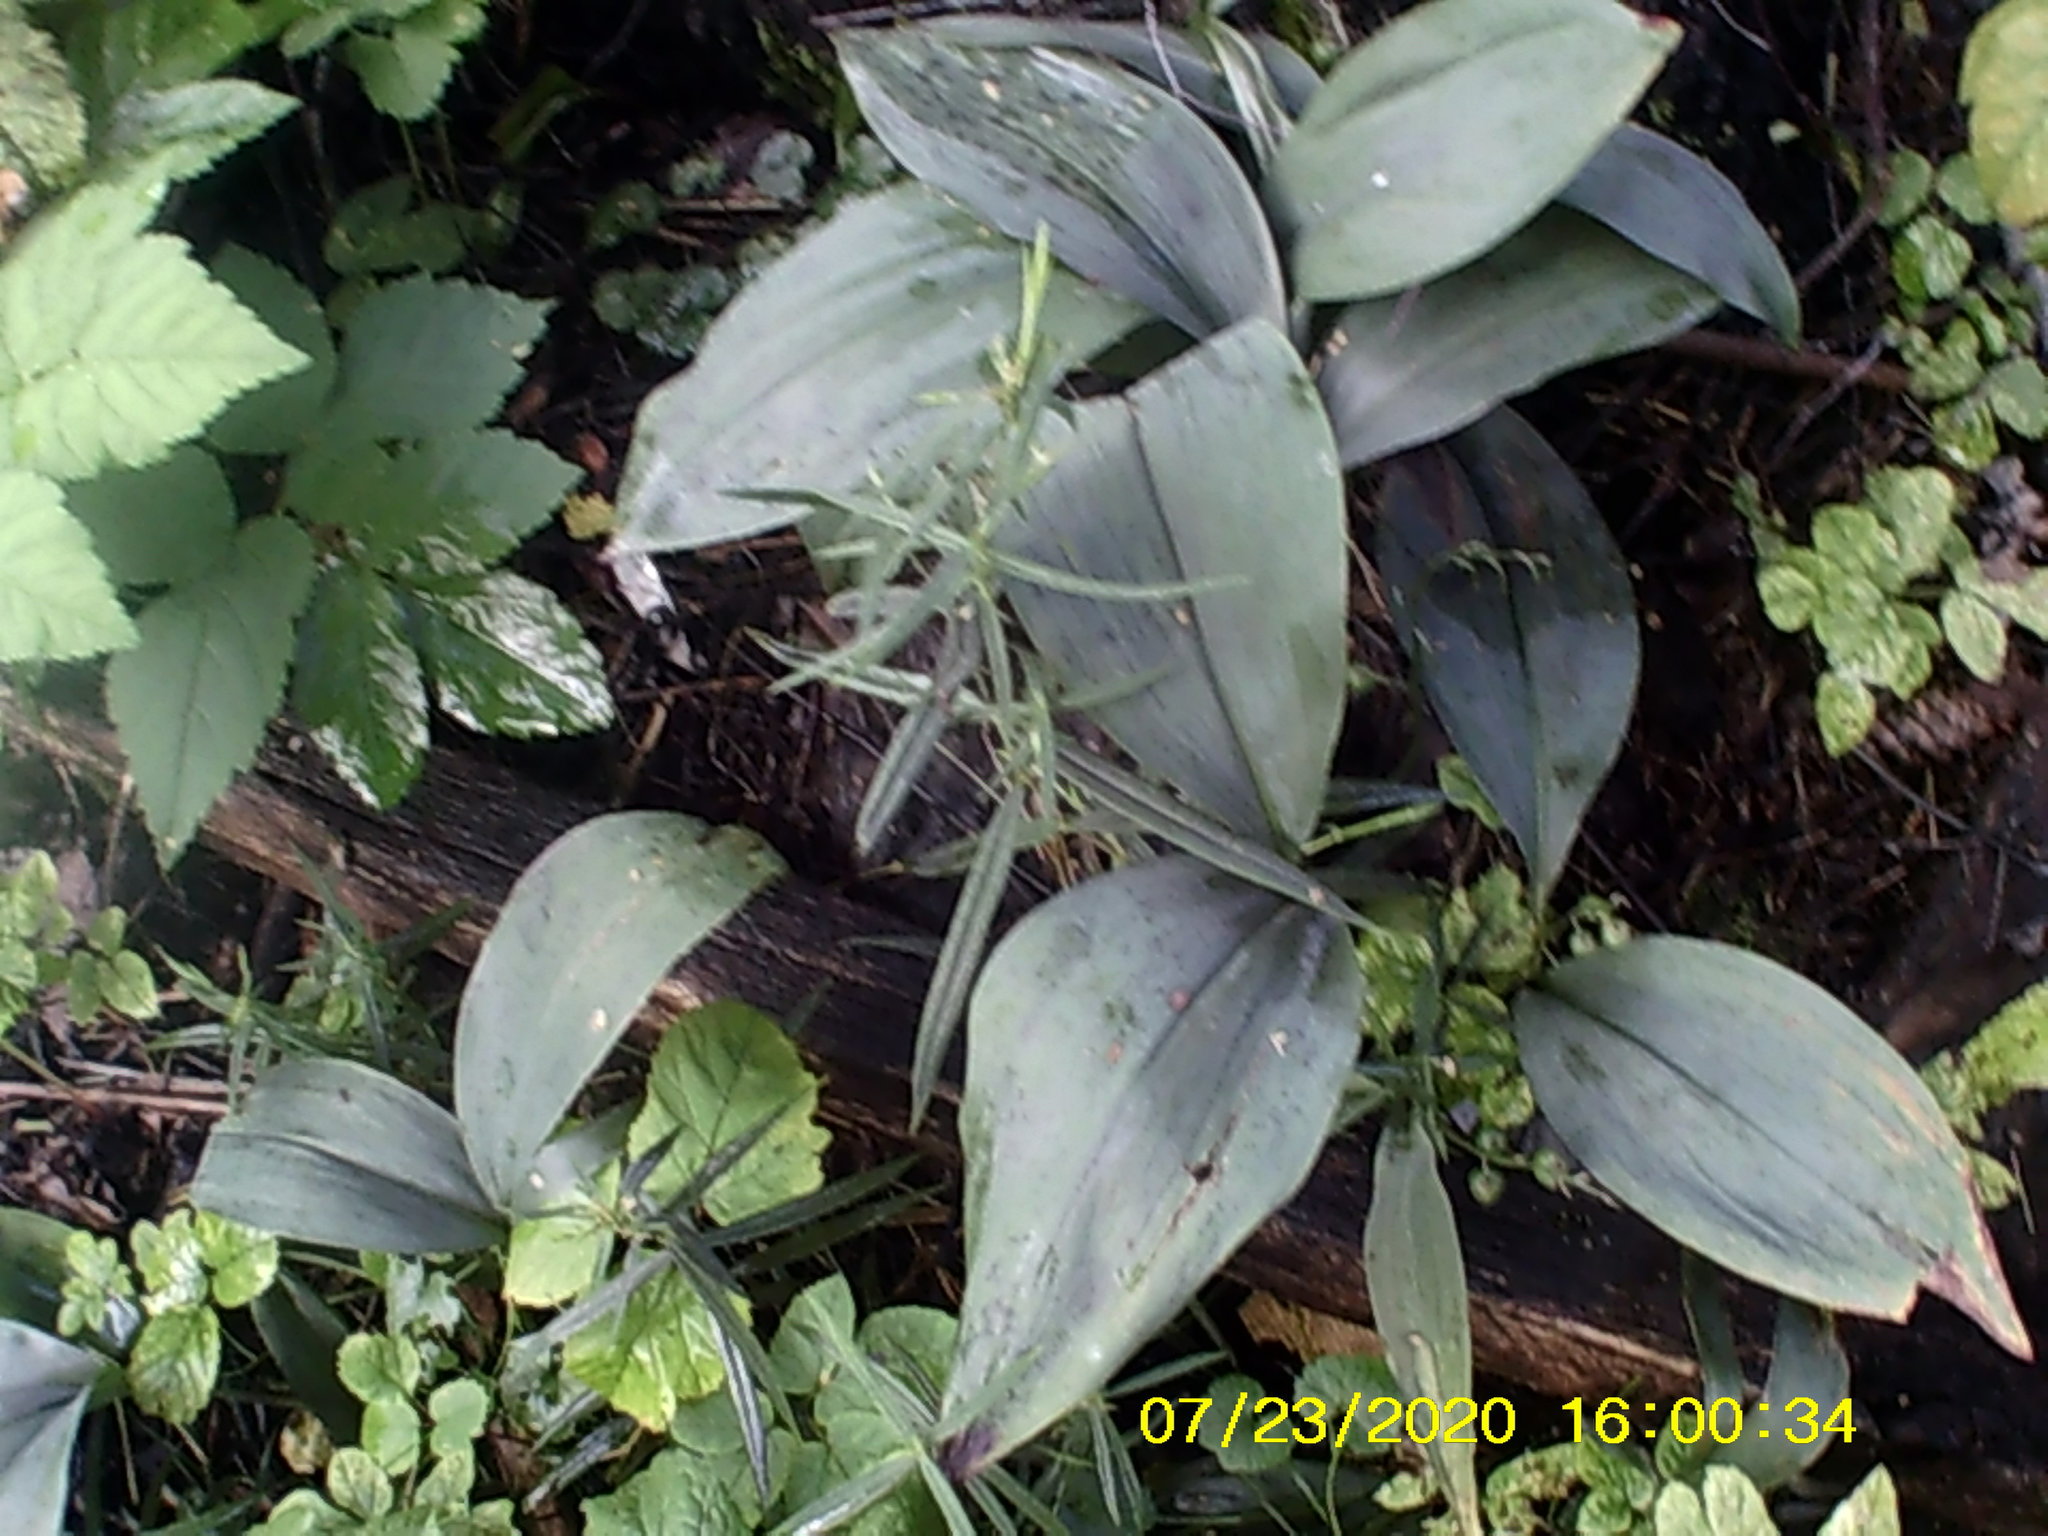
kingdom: Plantae
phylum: Tracheophyta
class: Liliopsida
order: Asparagales
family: Asparagaceae
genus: Convallaria
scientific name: Convallaria majalis
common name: Lily-of-the-valley
